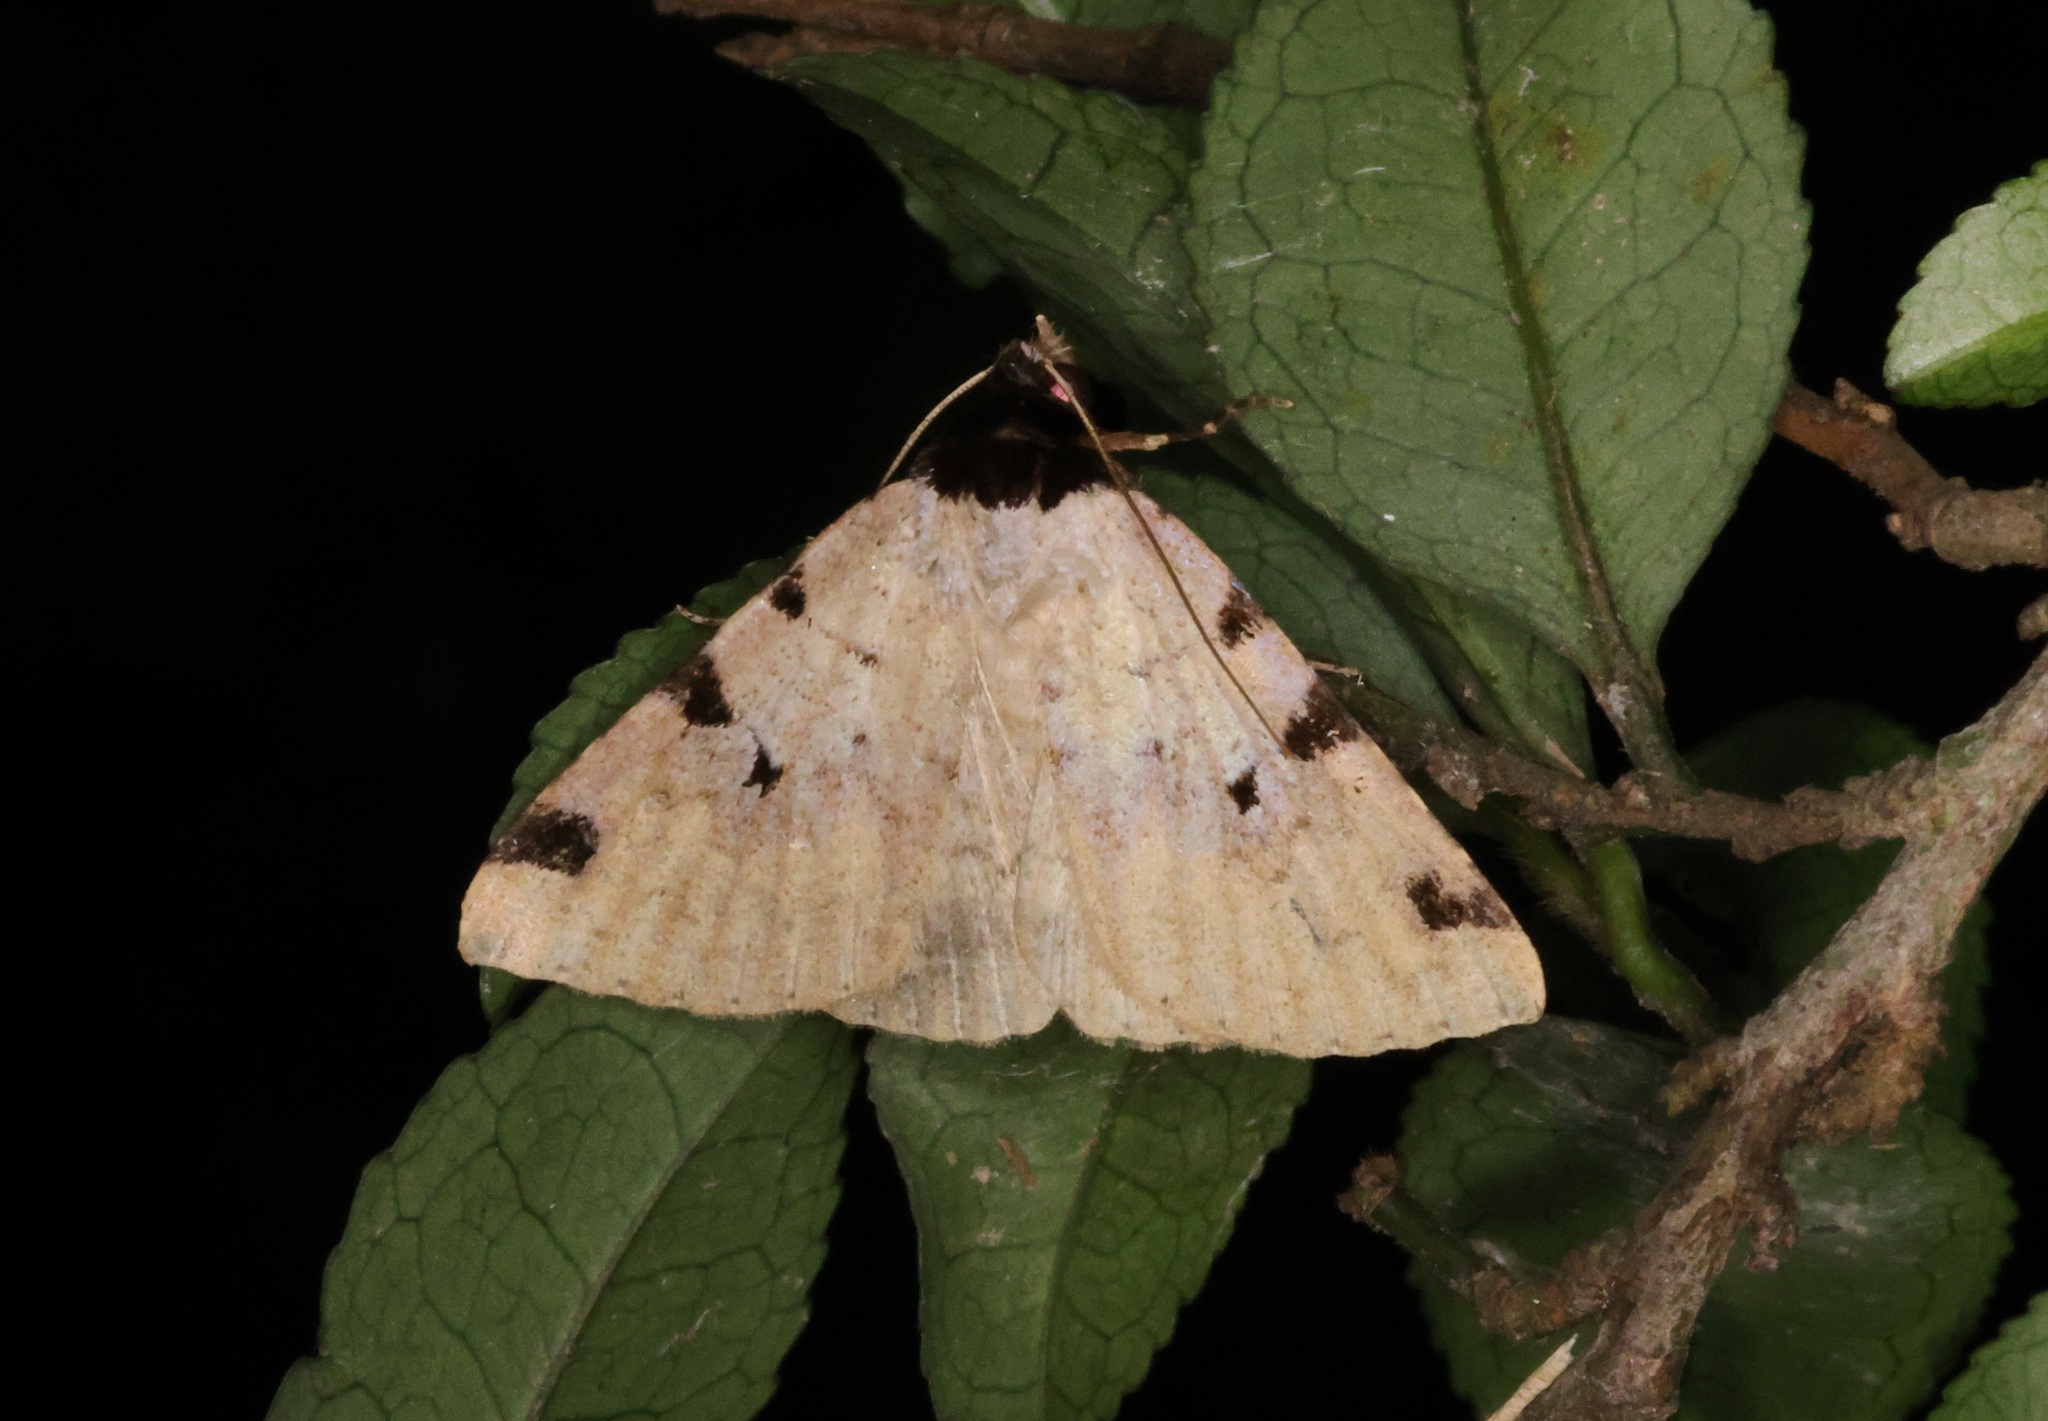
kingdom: Animalia
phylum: Arthropoda
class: Insecta
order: Lepidoptera
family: Erebidae
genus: Rema
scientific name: Rema costimacula
